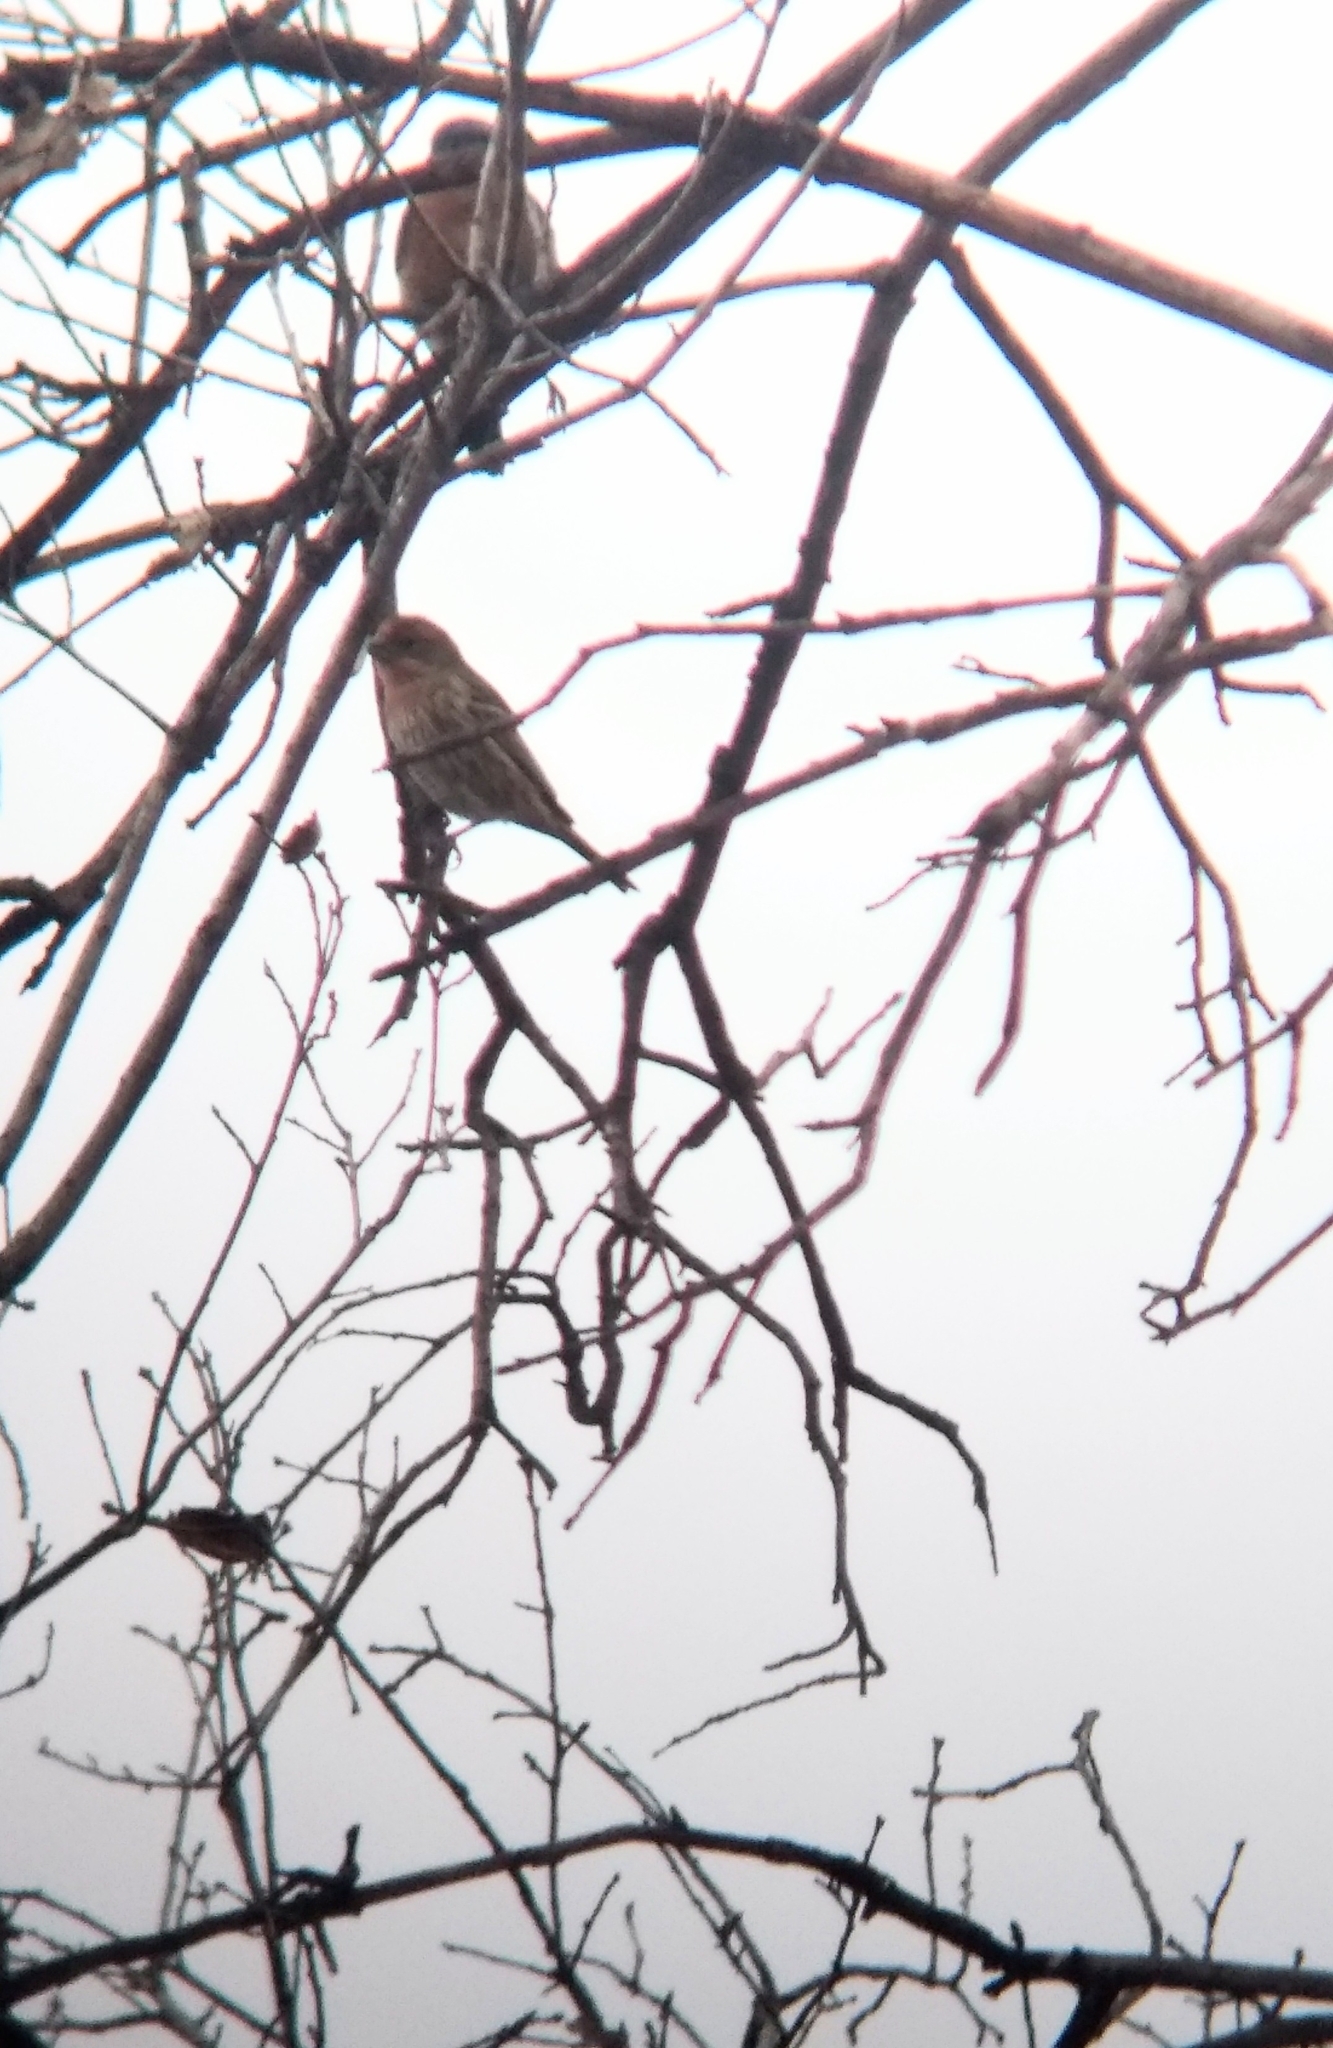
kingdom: Animalia
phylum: Chordata
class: Aves
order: Passeriformes
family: Fringillidae
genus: Haemorhous
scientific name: Haemorhous mexicanus
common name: House finch
